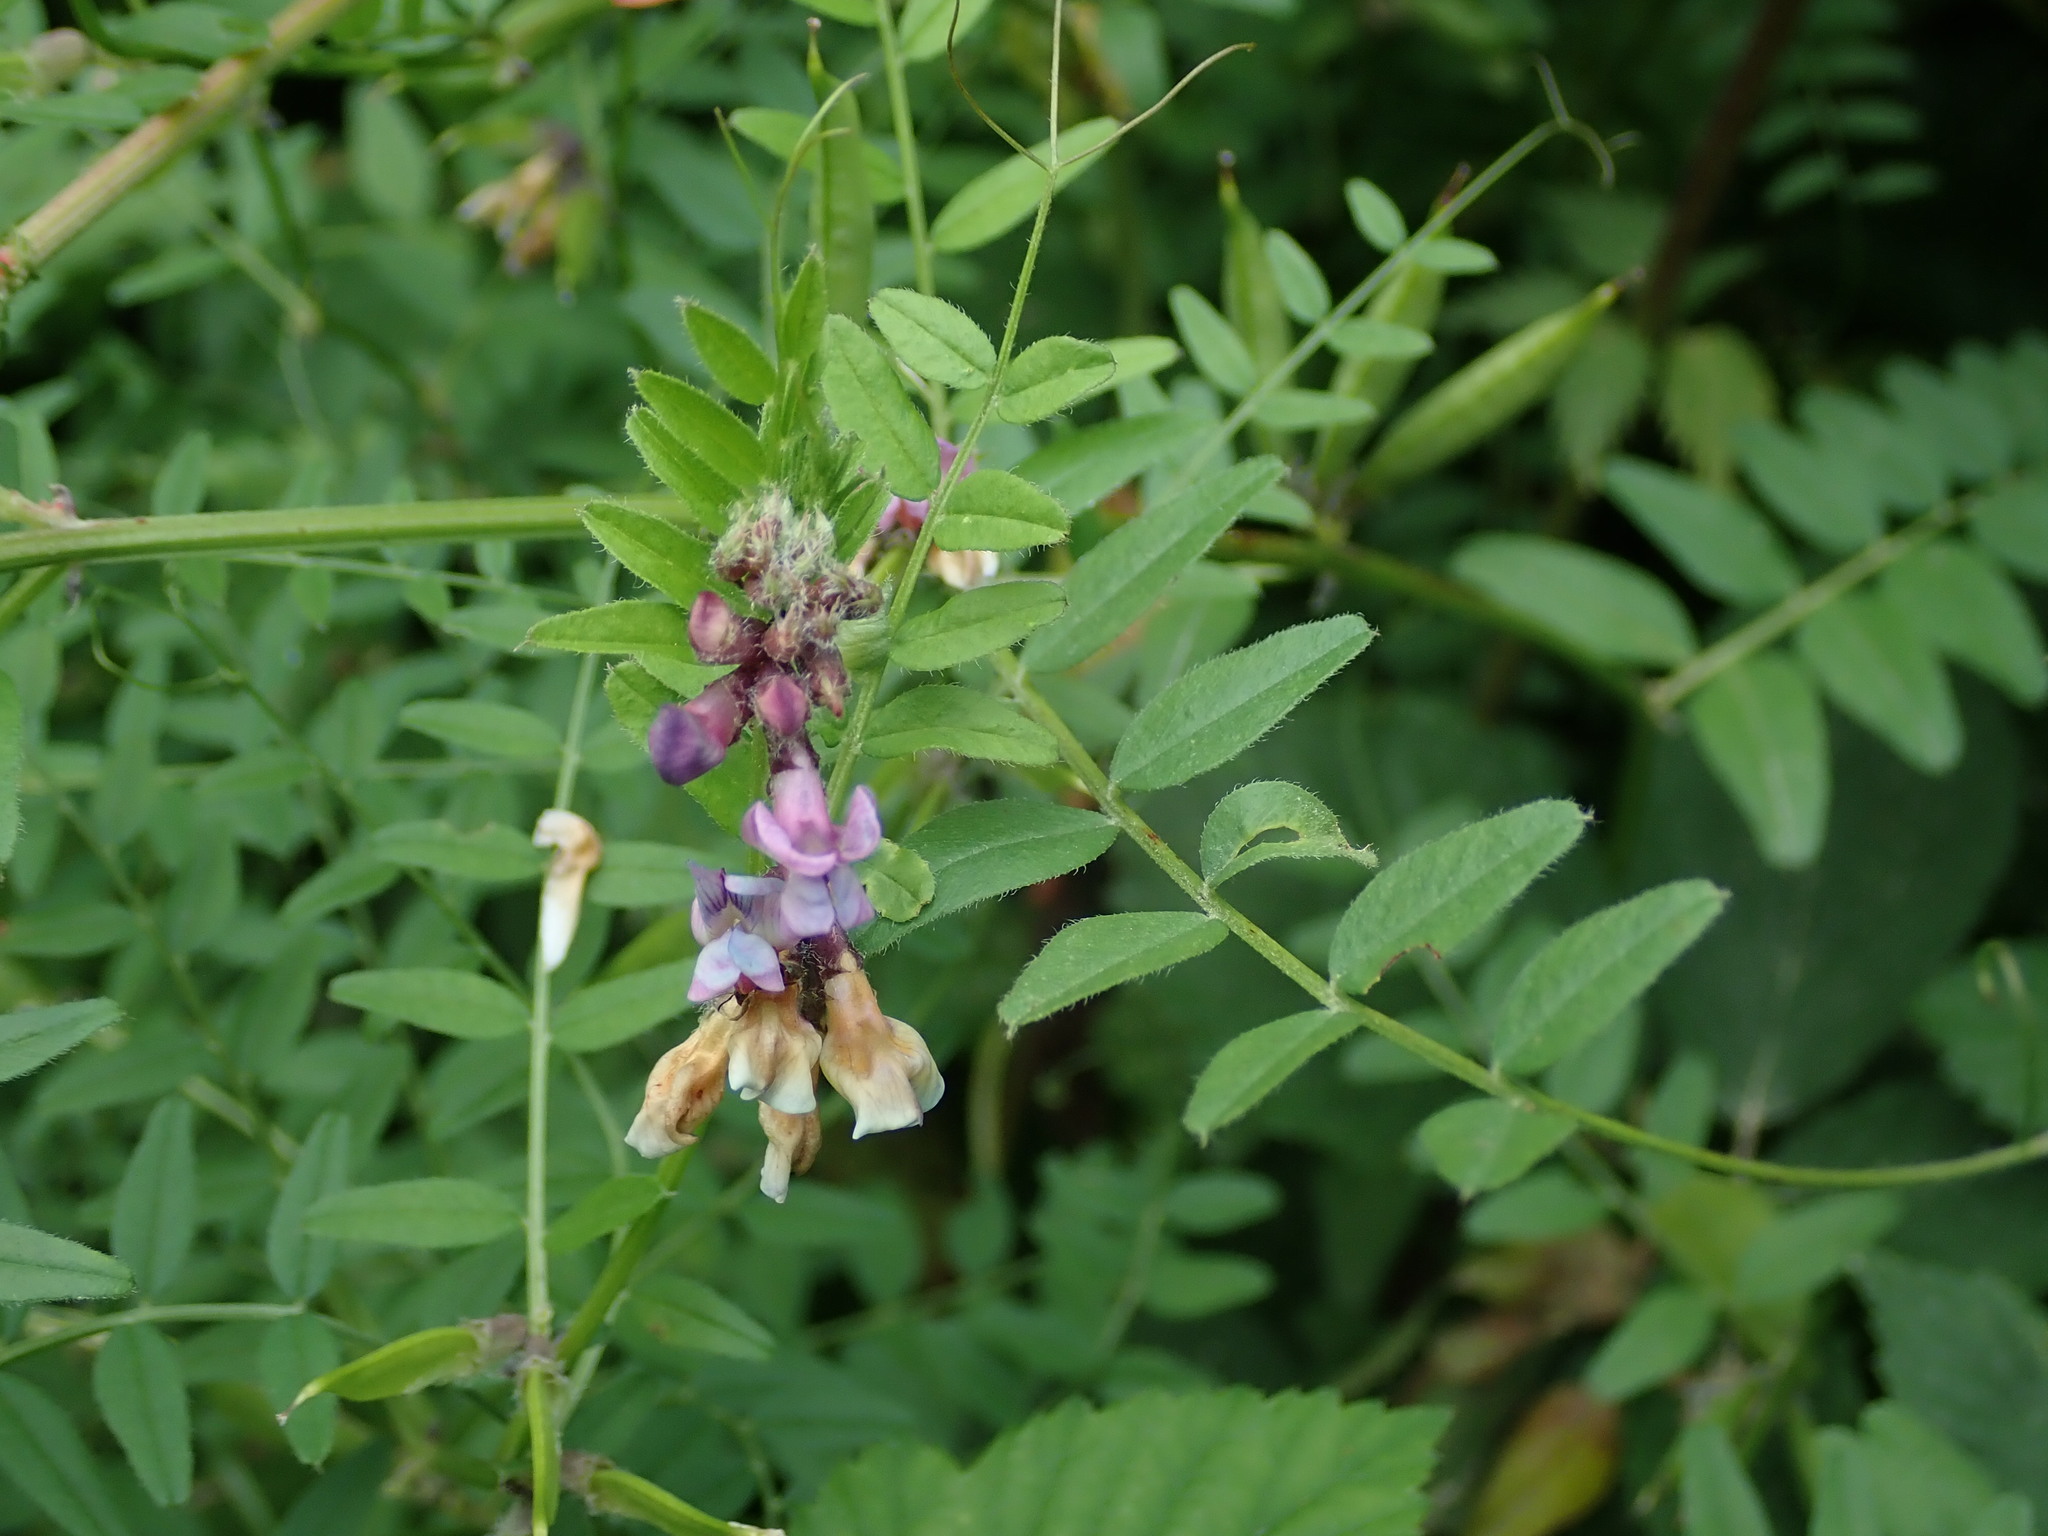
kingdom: Plantae
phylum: Tracheophyta
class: Magnoliopsida
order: Fabales
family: Fabaceae
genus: Vicia
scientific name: Vicia sepium
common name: Bush vetch
